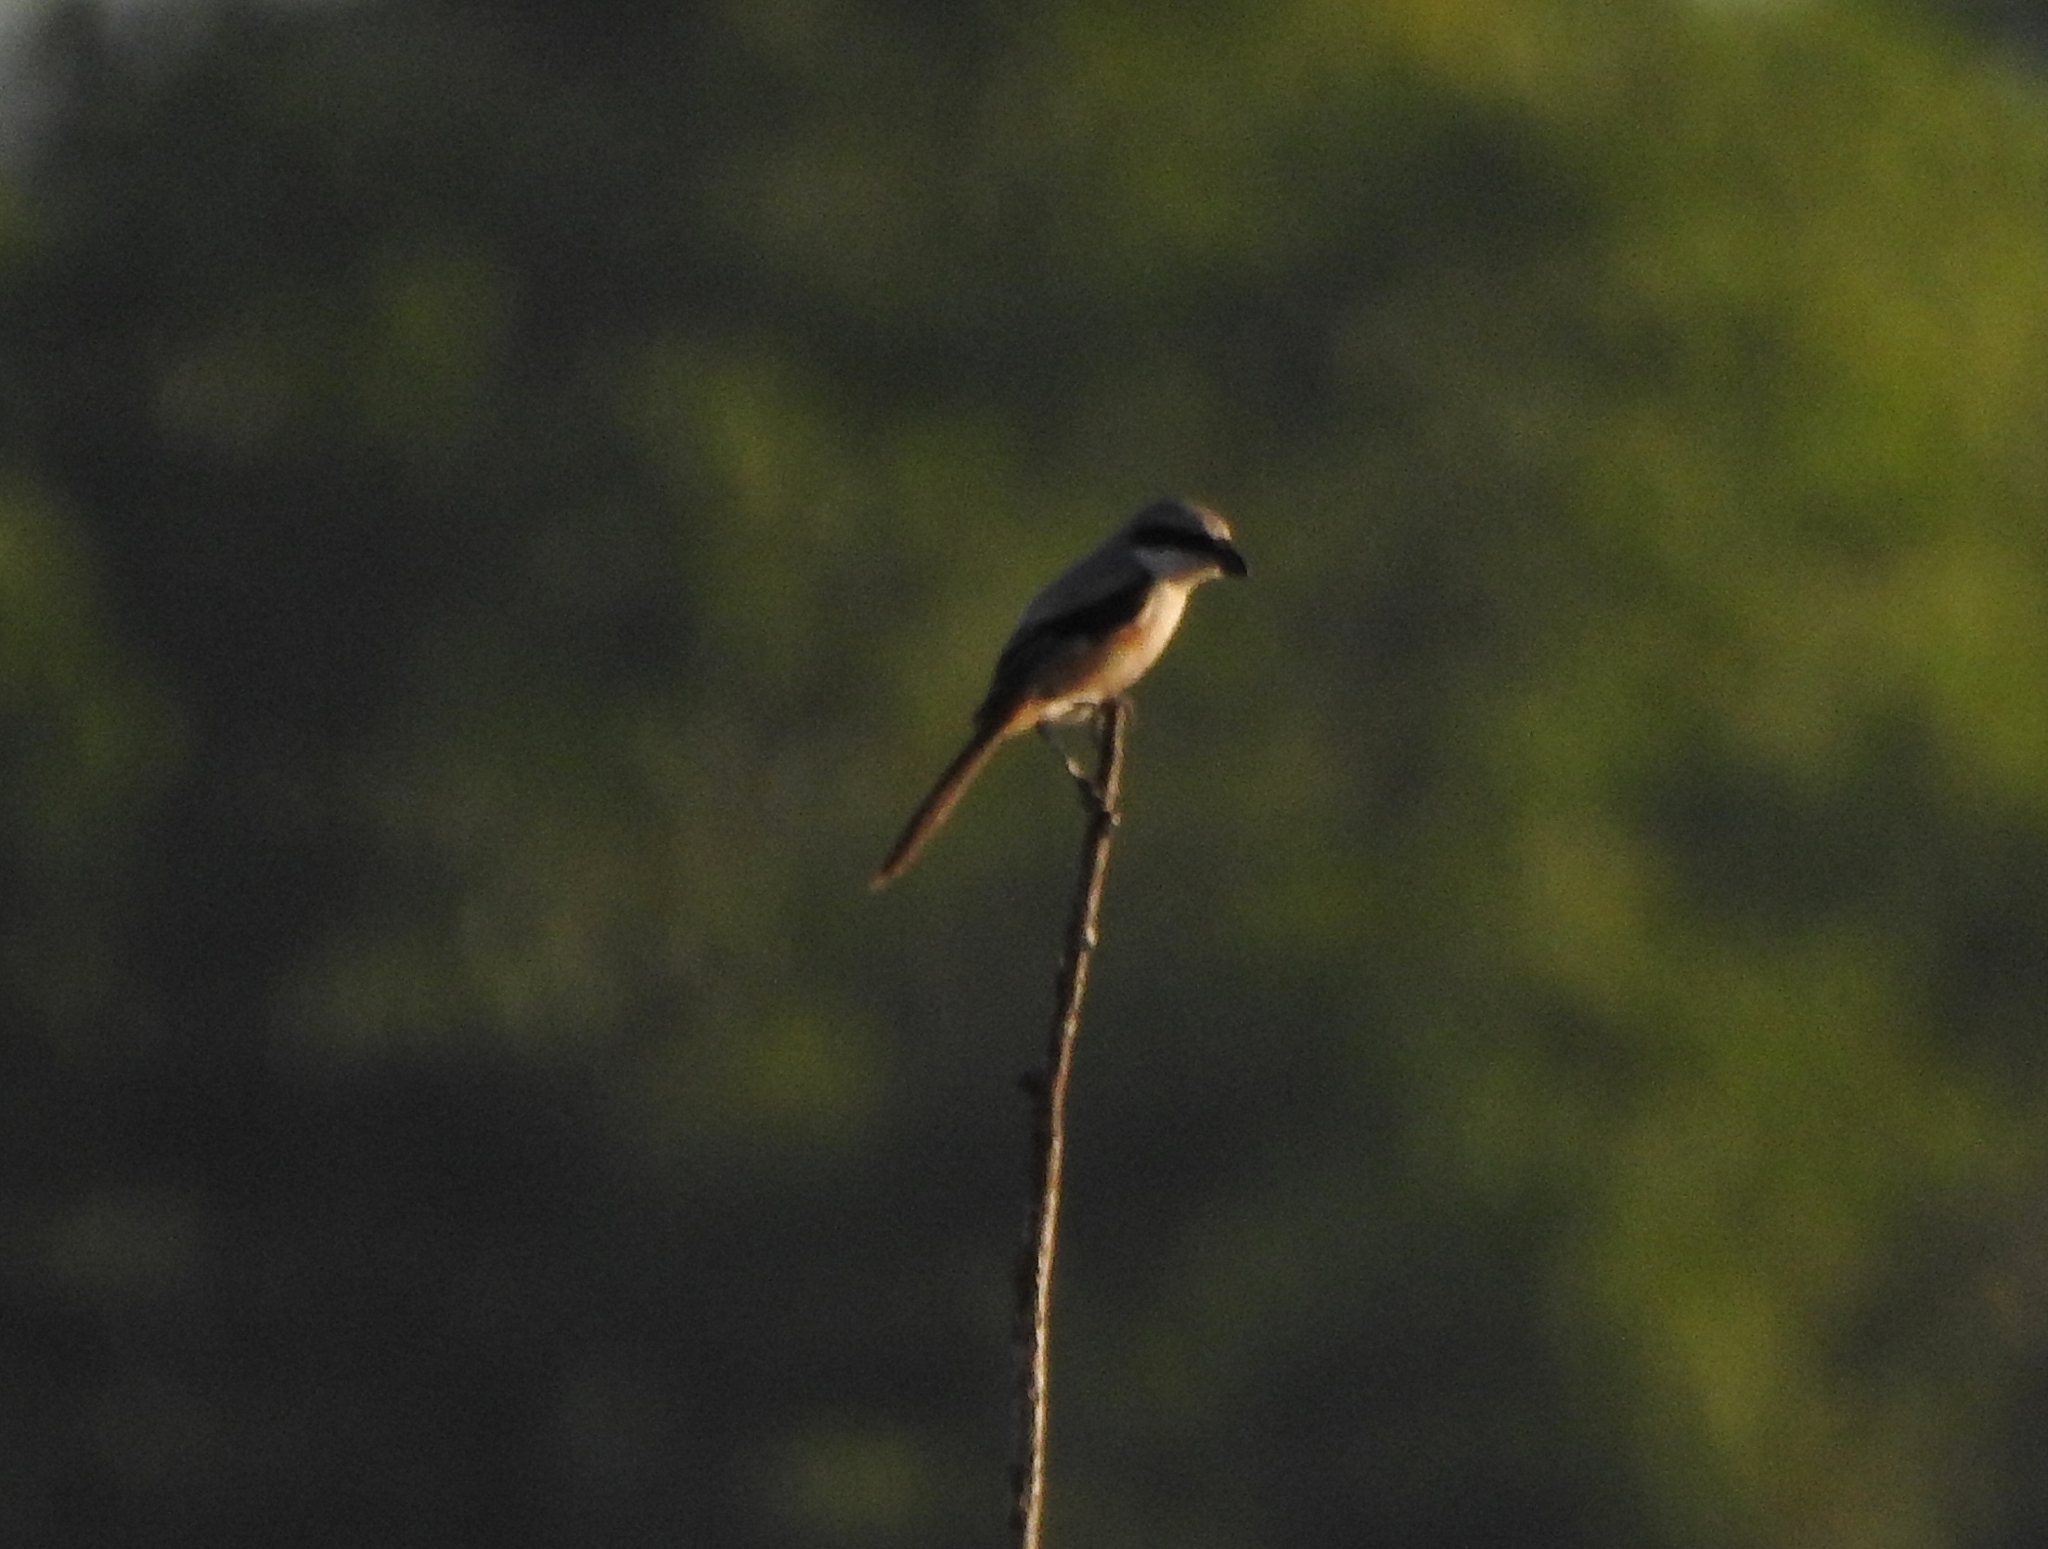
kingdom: Animalia
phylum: Chordata
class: Aves
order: Passeriformes
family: Laniidae
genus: Lanius
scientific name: Lanius schach
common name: Long-tailed shrike
